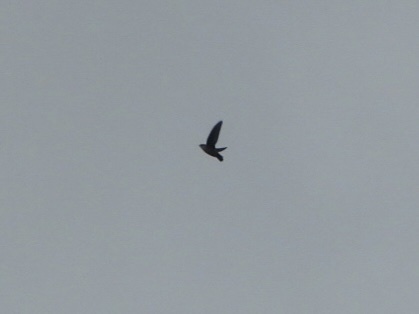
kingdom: Animalia
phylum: Chordata
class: Aves
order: Apodiformes
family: Apodidae
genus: Chaetura
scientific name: Chaetura vauxi
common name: Vaux's swift
